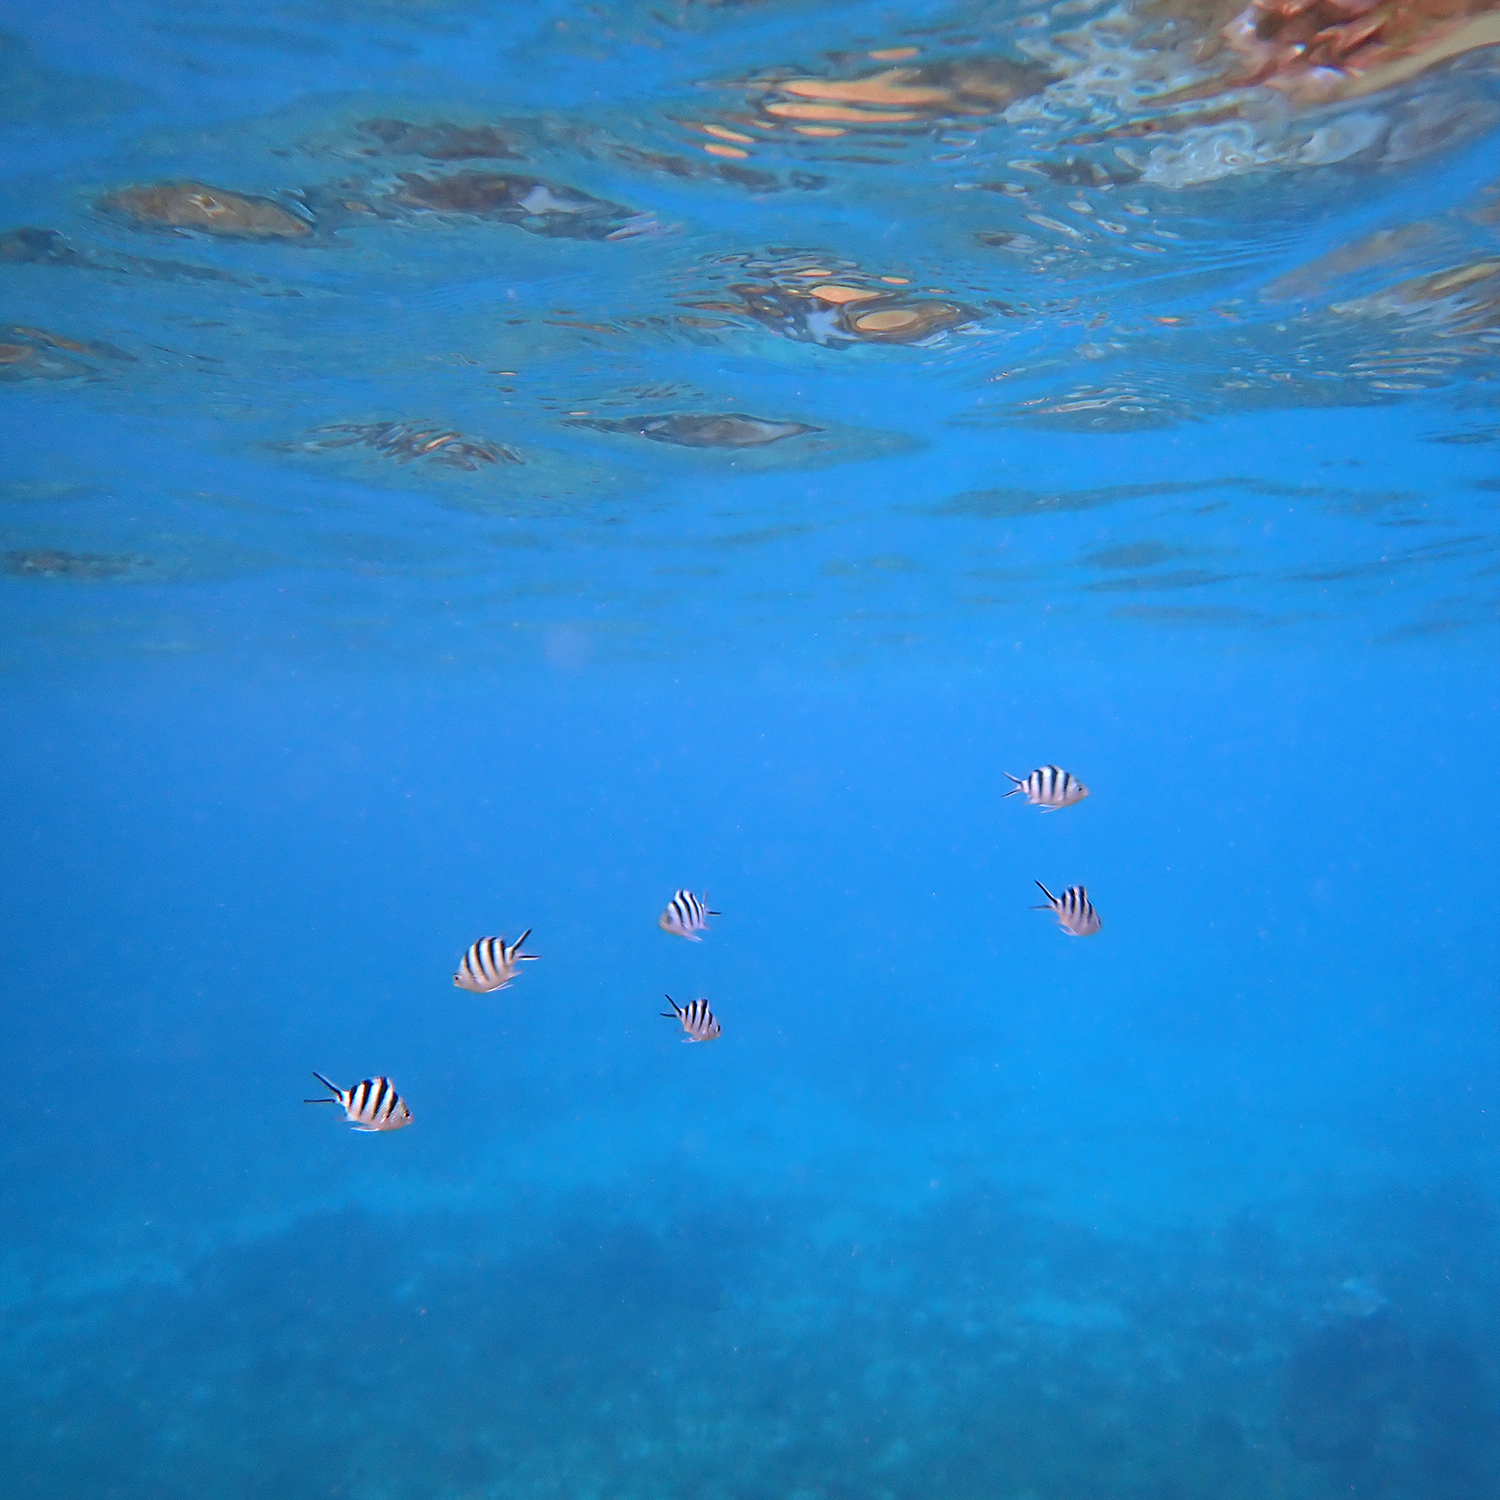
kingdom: Animalia
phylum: Chordata
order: Perciformes
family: Pomacentridae
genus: Abudefduf
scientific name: Abudefduf sexfasciatus
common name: Scissortail sergeant
